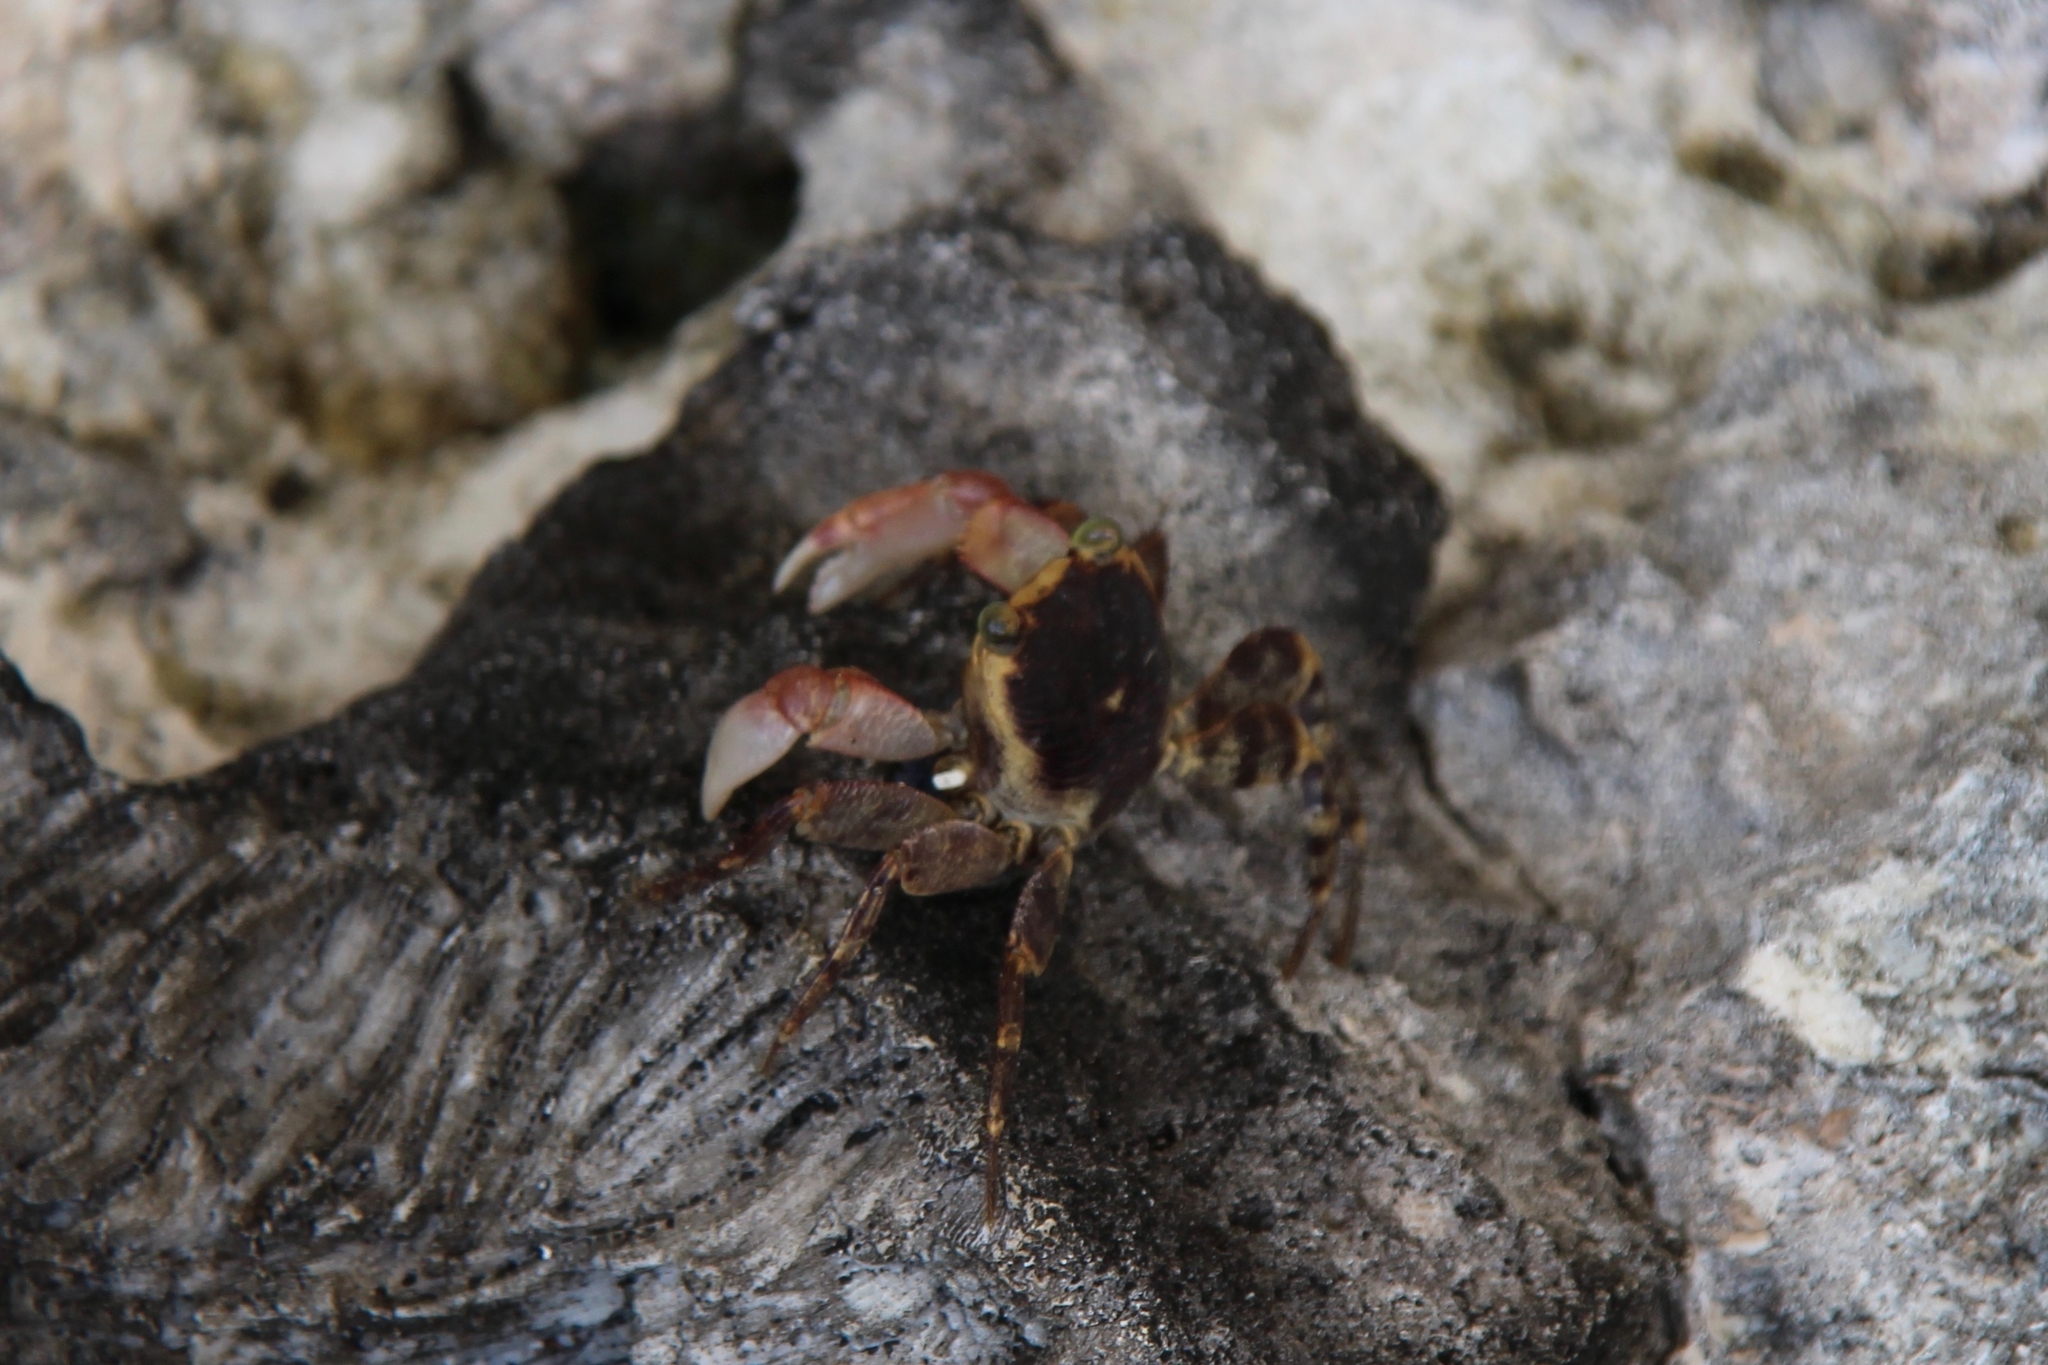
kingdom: Animalia
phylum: Arthropoda
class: Malacostraca
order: Decapoda
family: Grapsidae
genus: Geograpsus
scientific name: Geograpsus grayi
